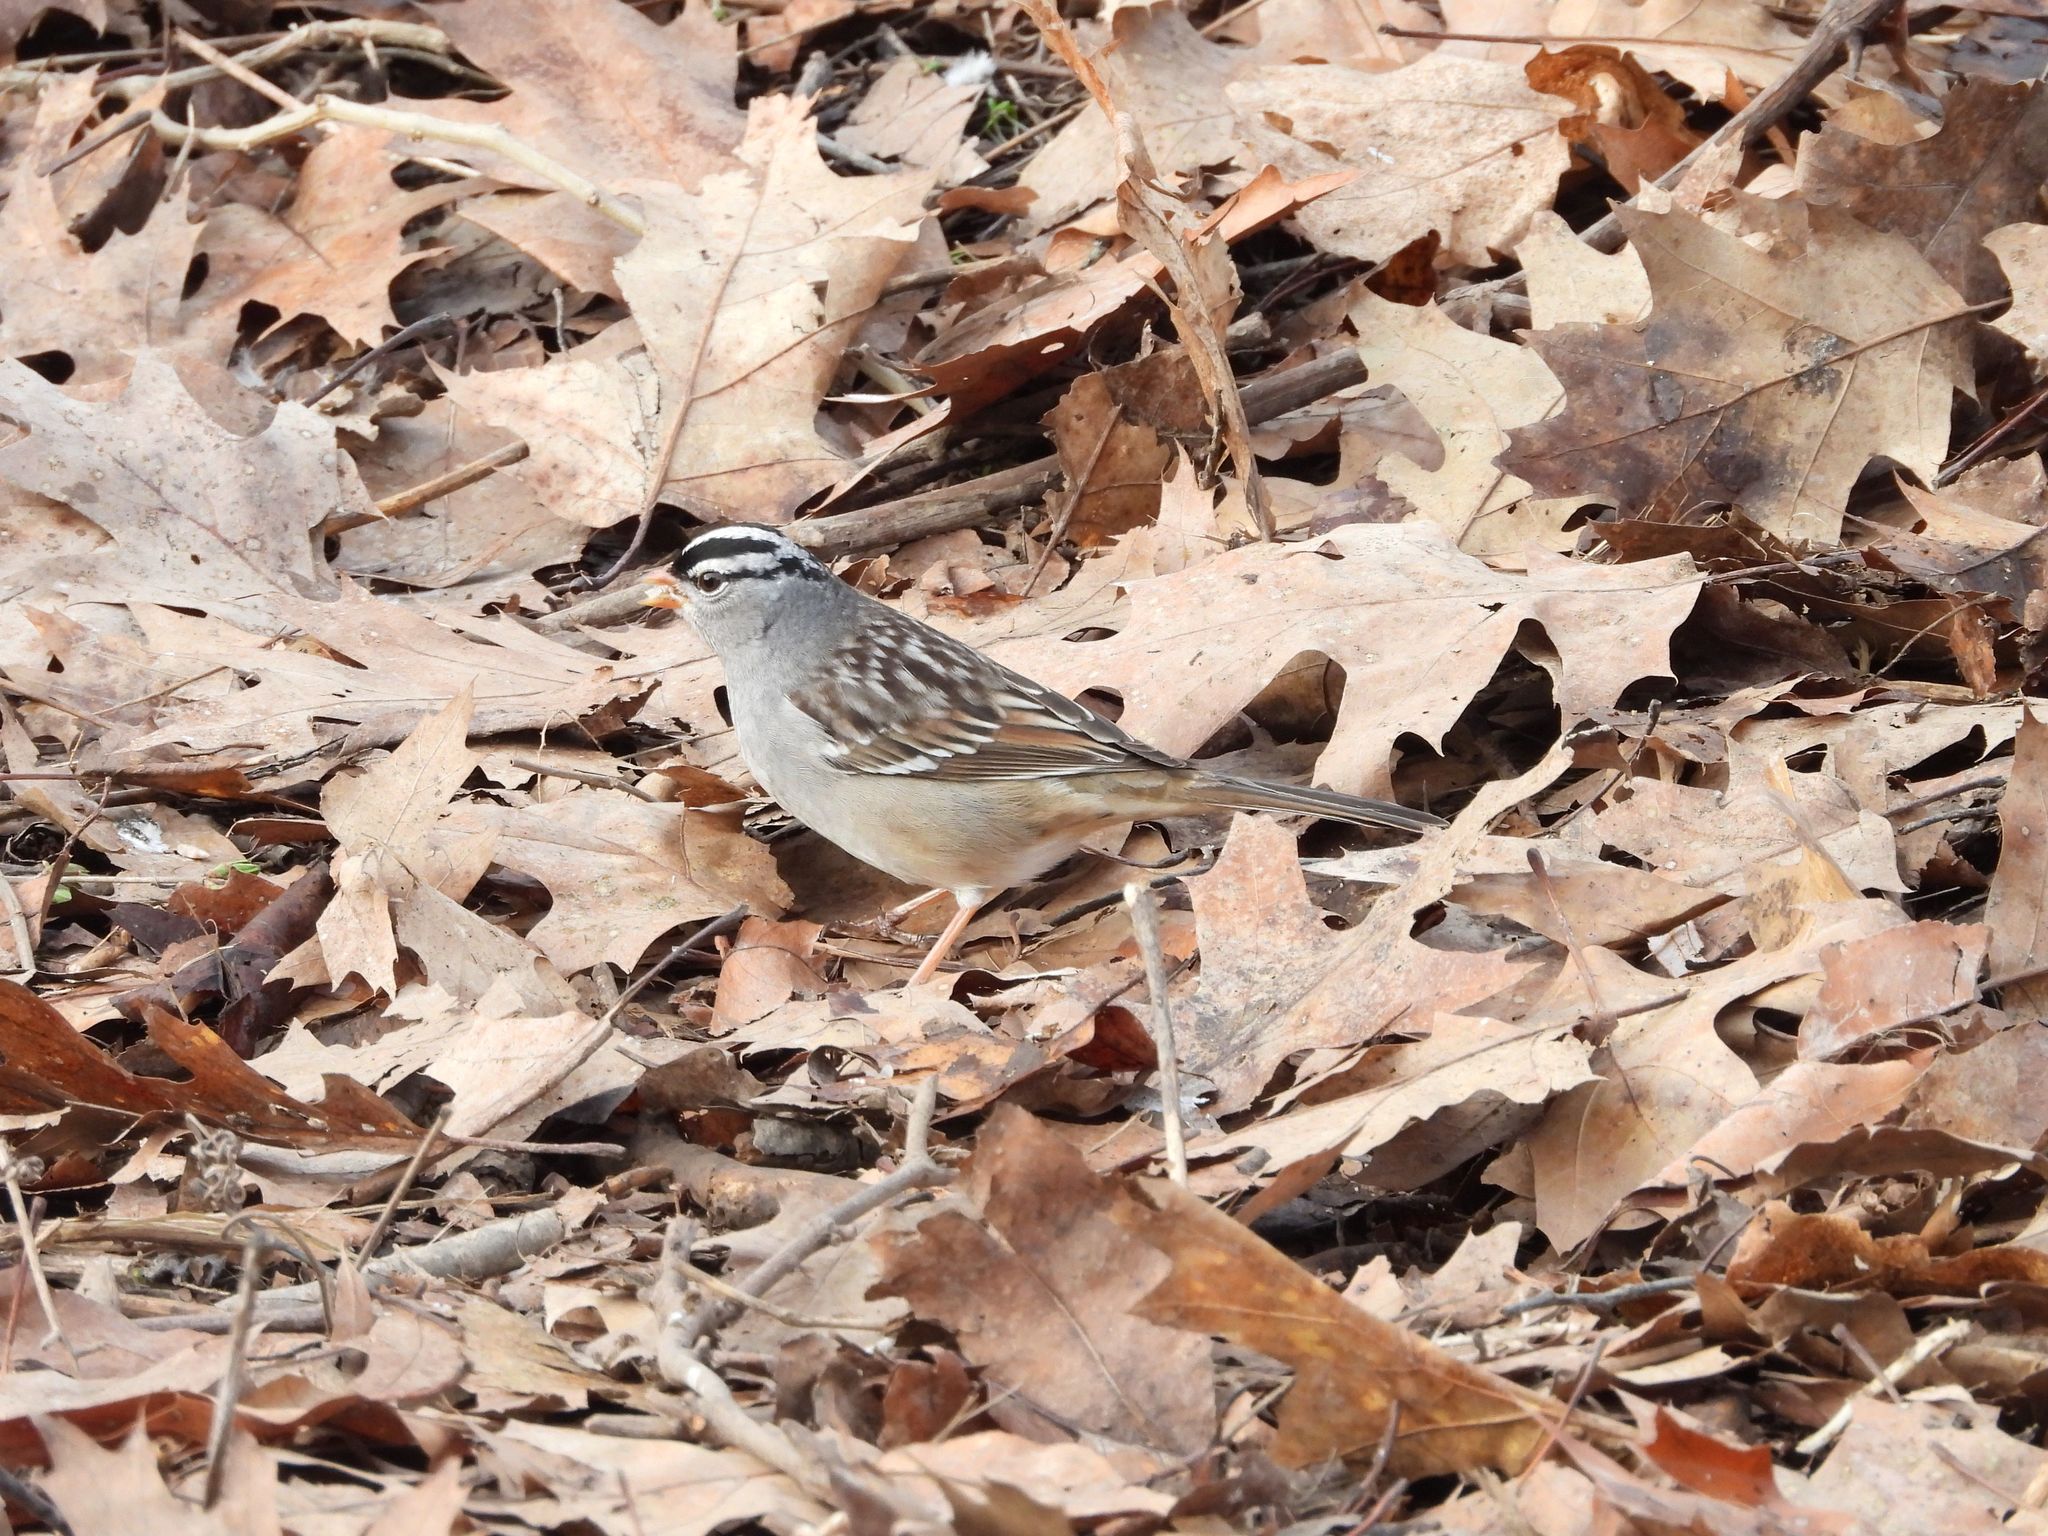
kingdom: Animalia
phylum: Chordata
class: Aves
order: Passeriformes
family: Passerellidae
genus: Zonotrichia
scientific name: Zonotrichia leucophrys
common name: White-crowned sparrow
